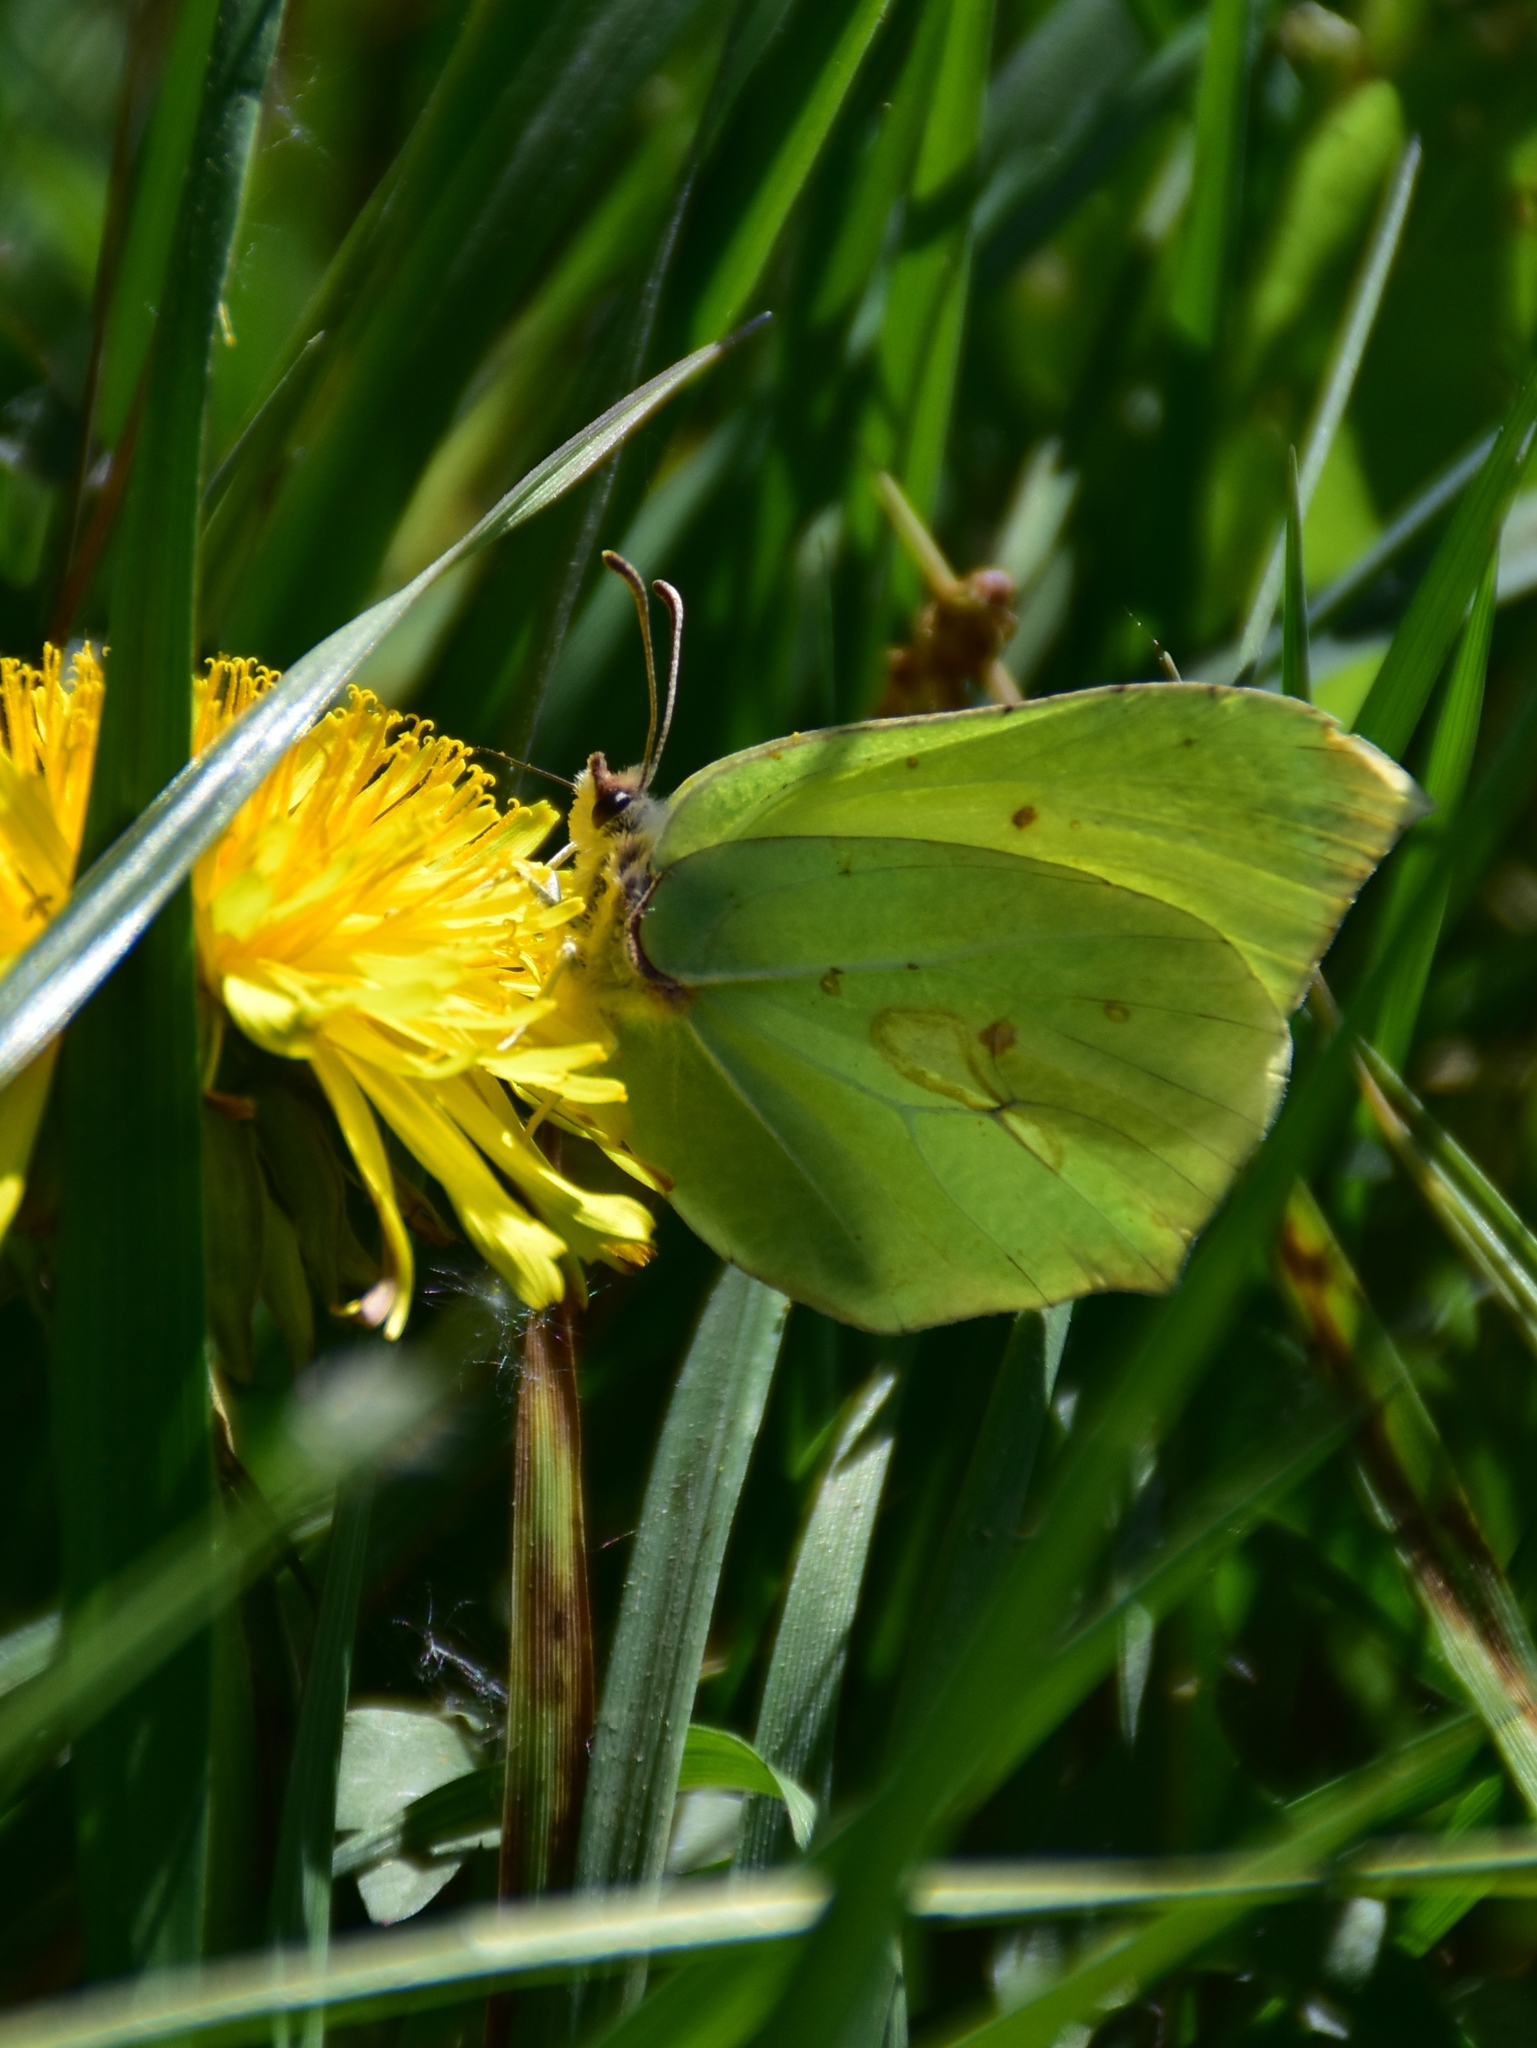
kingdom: Animalia
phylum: Arthropoda
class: Insecta
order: Lepidoptera
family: Pieridae
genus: Gonepteryx
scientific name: Gonepteryx rhamni
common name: Brimstone
